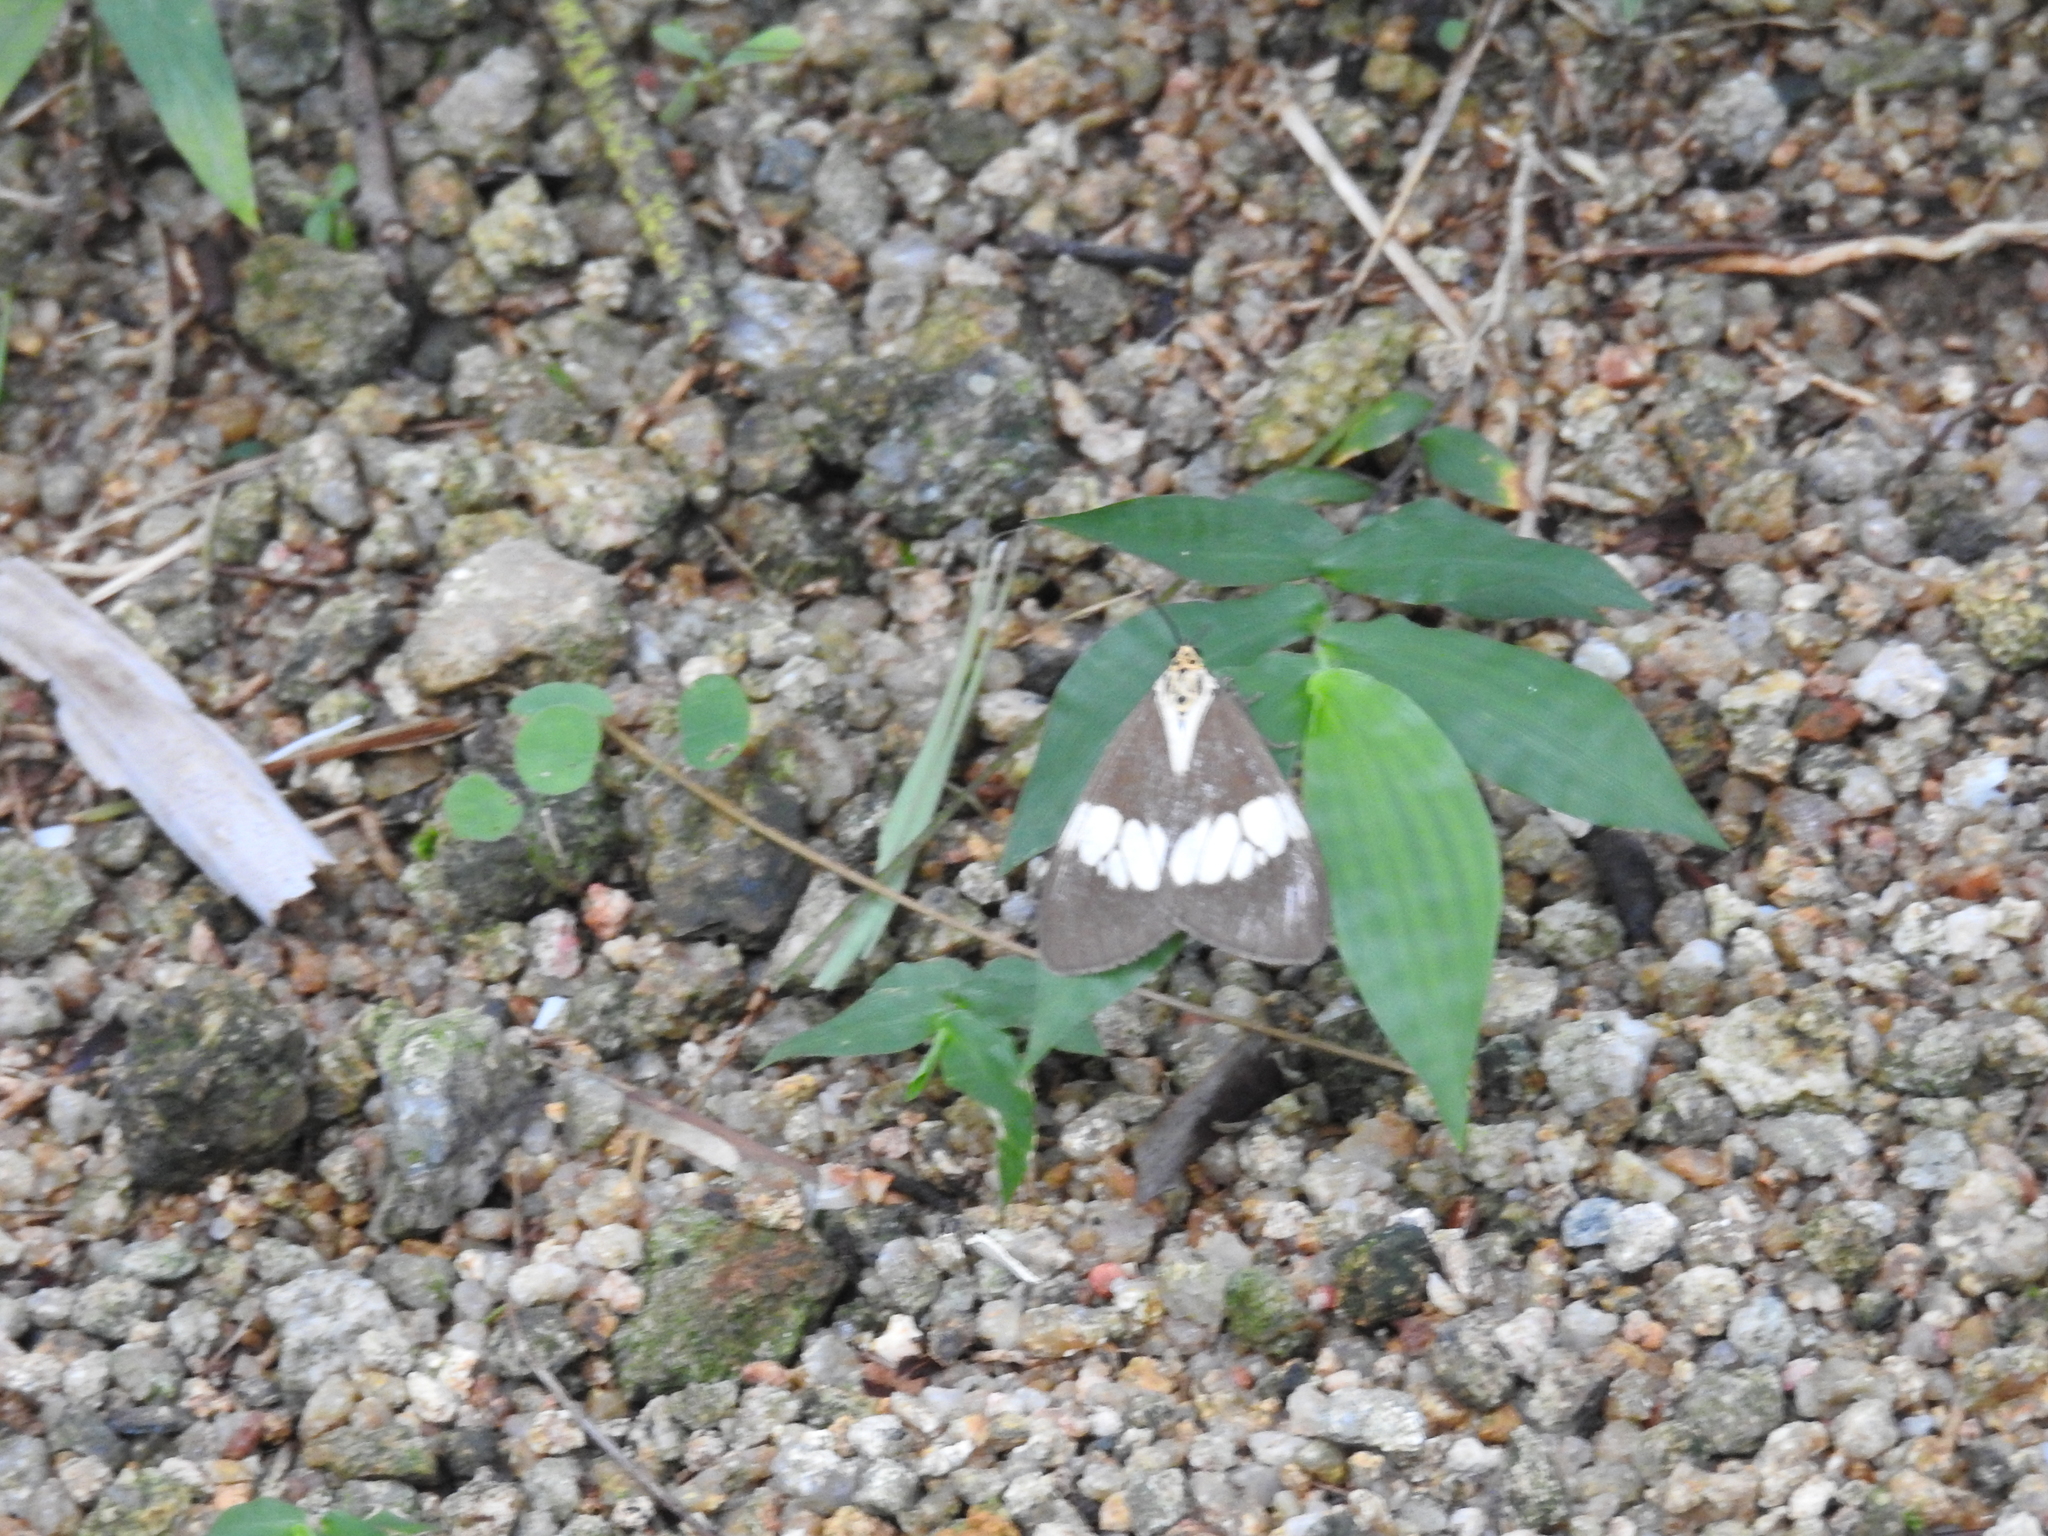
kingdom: Animalia
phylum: Arthropoda
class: Insecta
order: Lepidoptera
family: Erebidae
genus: Nyctemera
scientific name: Nyctemera lacticinia
